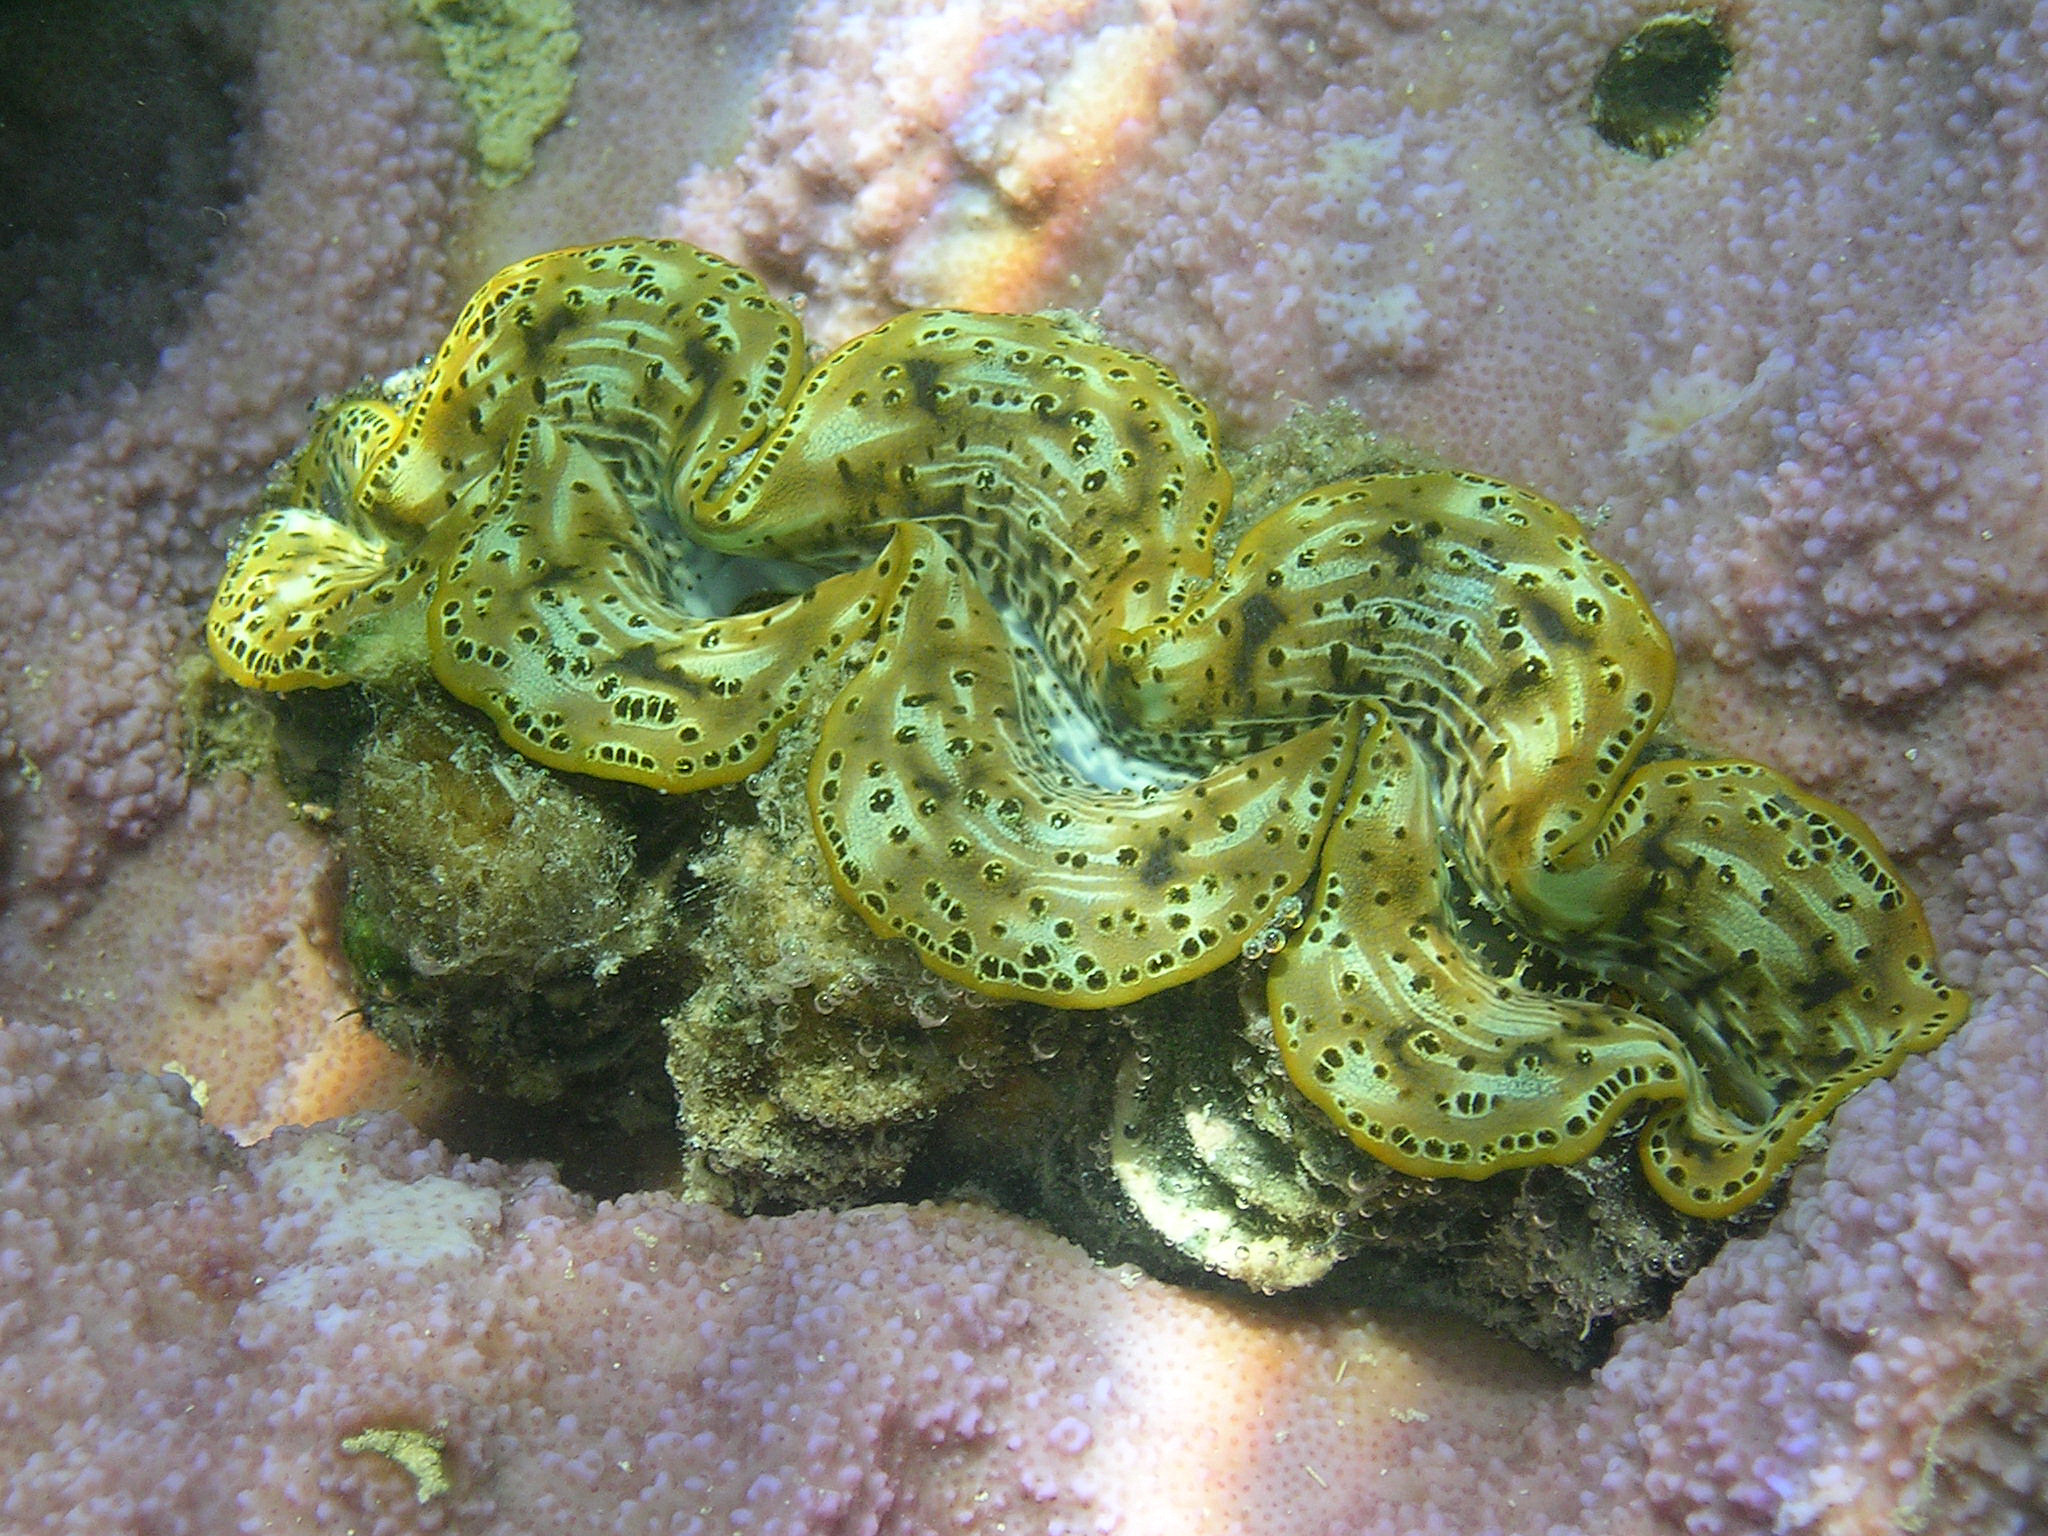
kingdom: Animalia
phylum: Mollusca
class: Bivalvia
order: Cardiida
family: Cardiidae
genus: Tridacna
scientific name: Tridacna maxima
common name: Small giant clam
